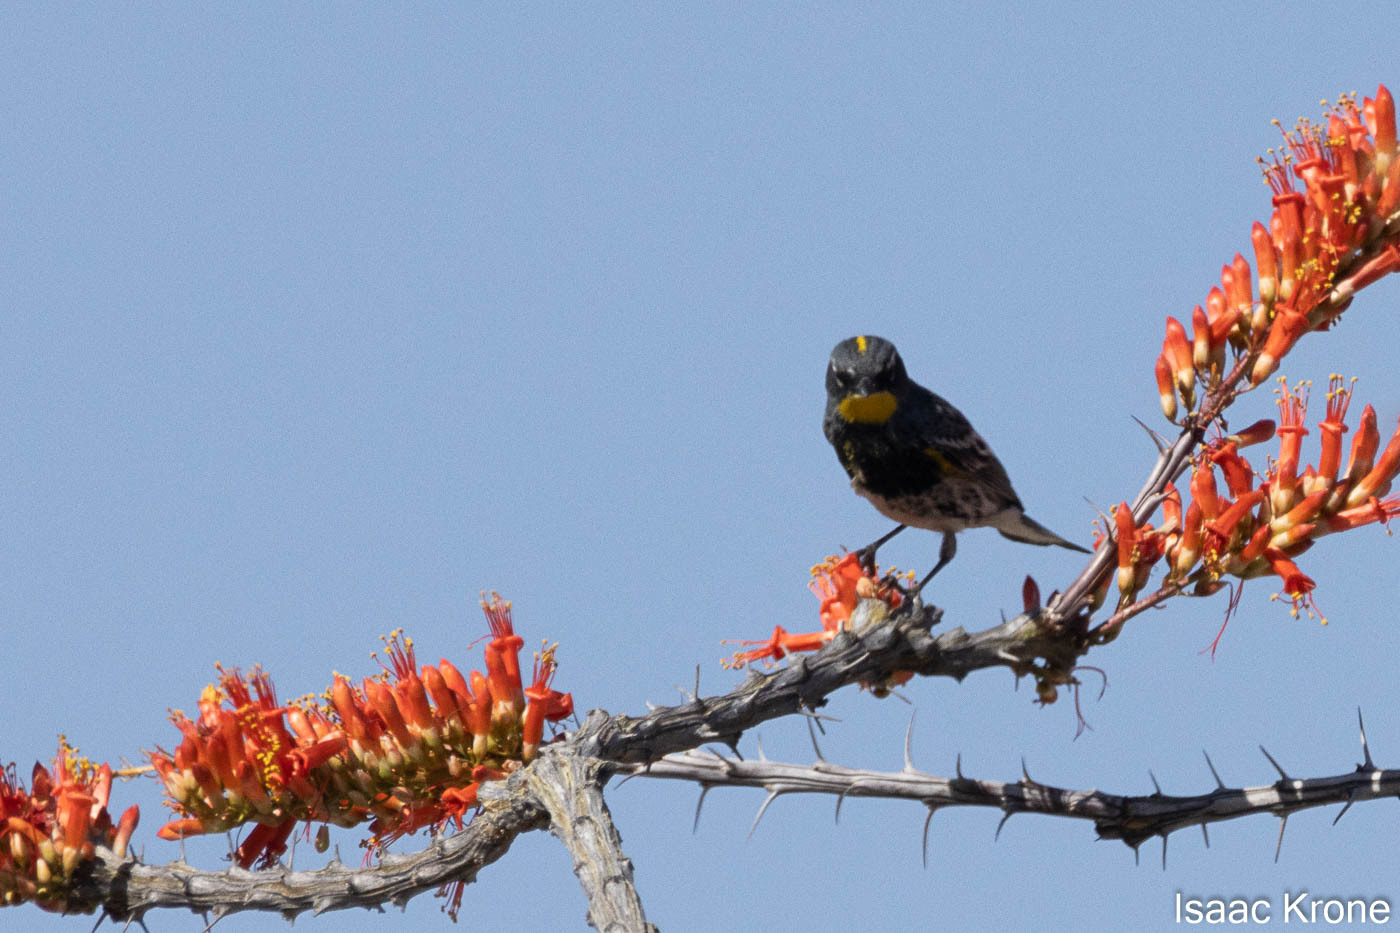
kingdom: Animalia
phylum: Chordata
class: Aves
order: Passeriformes
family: Parulidae
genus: Setophaga
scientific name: Setophaga coronata
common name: Myrtle warbler
